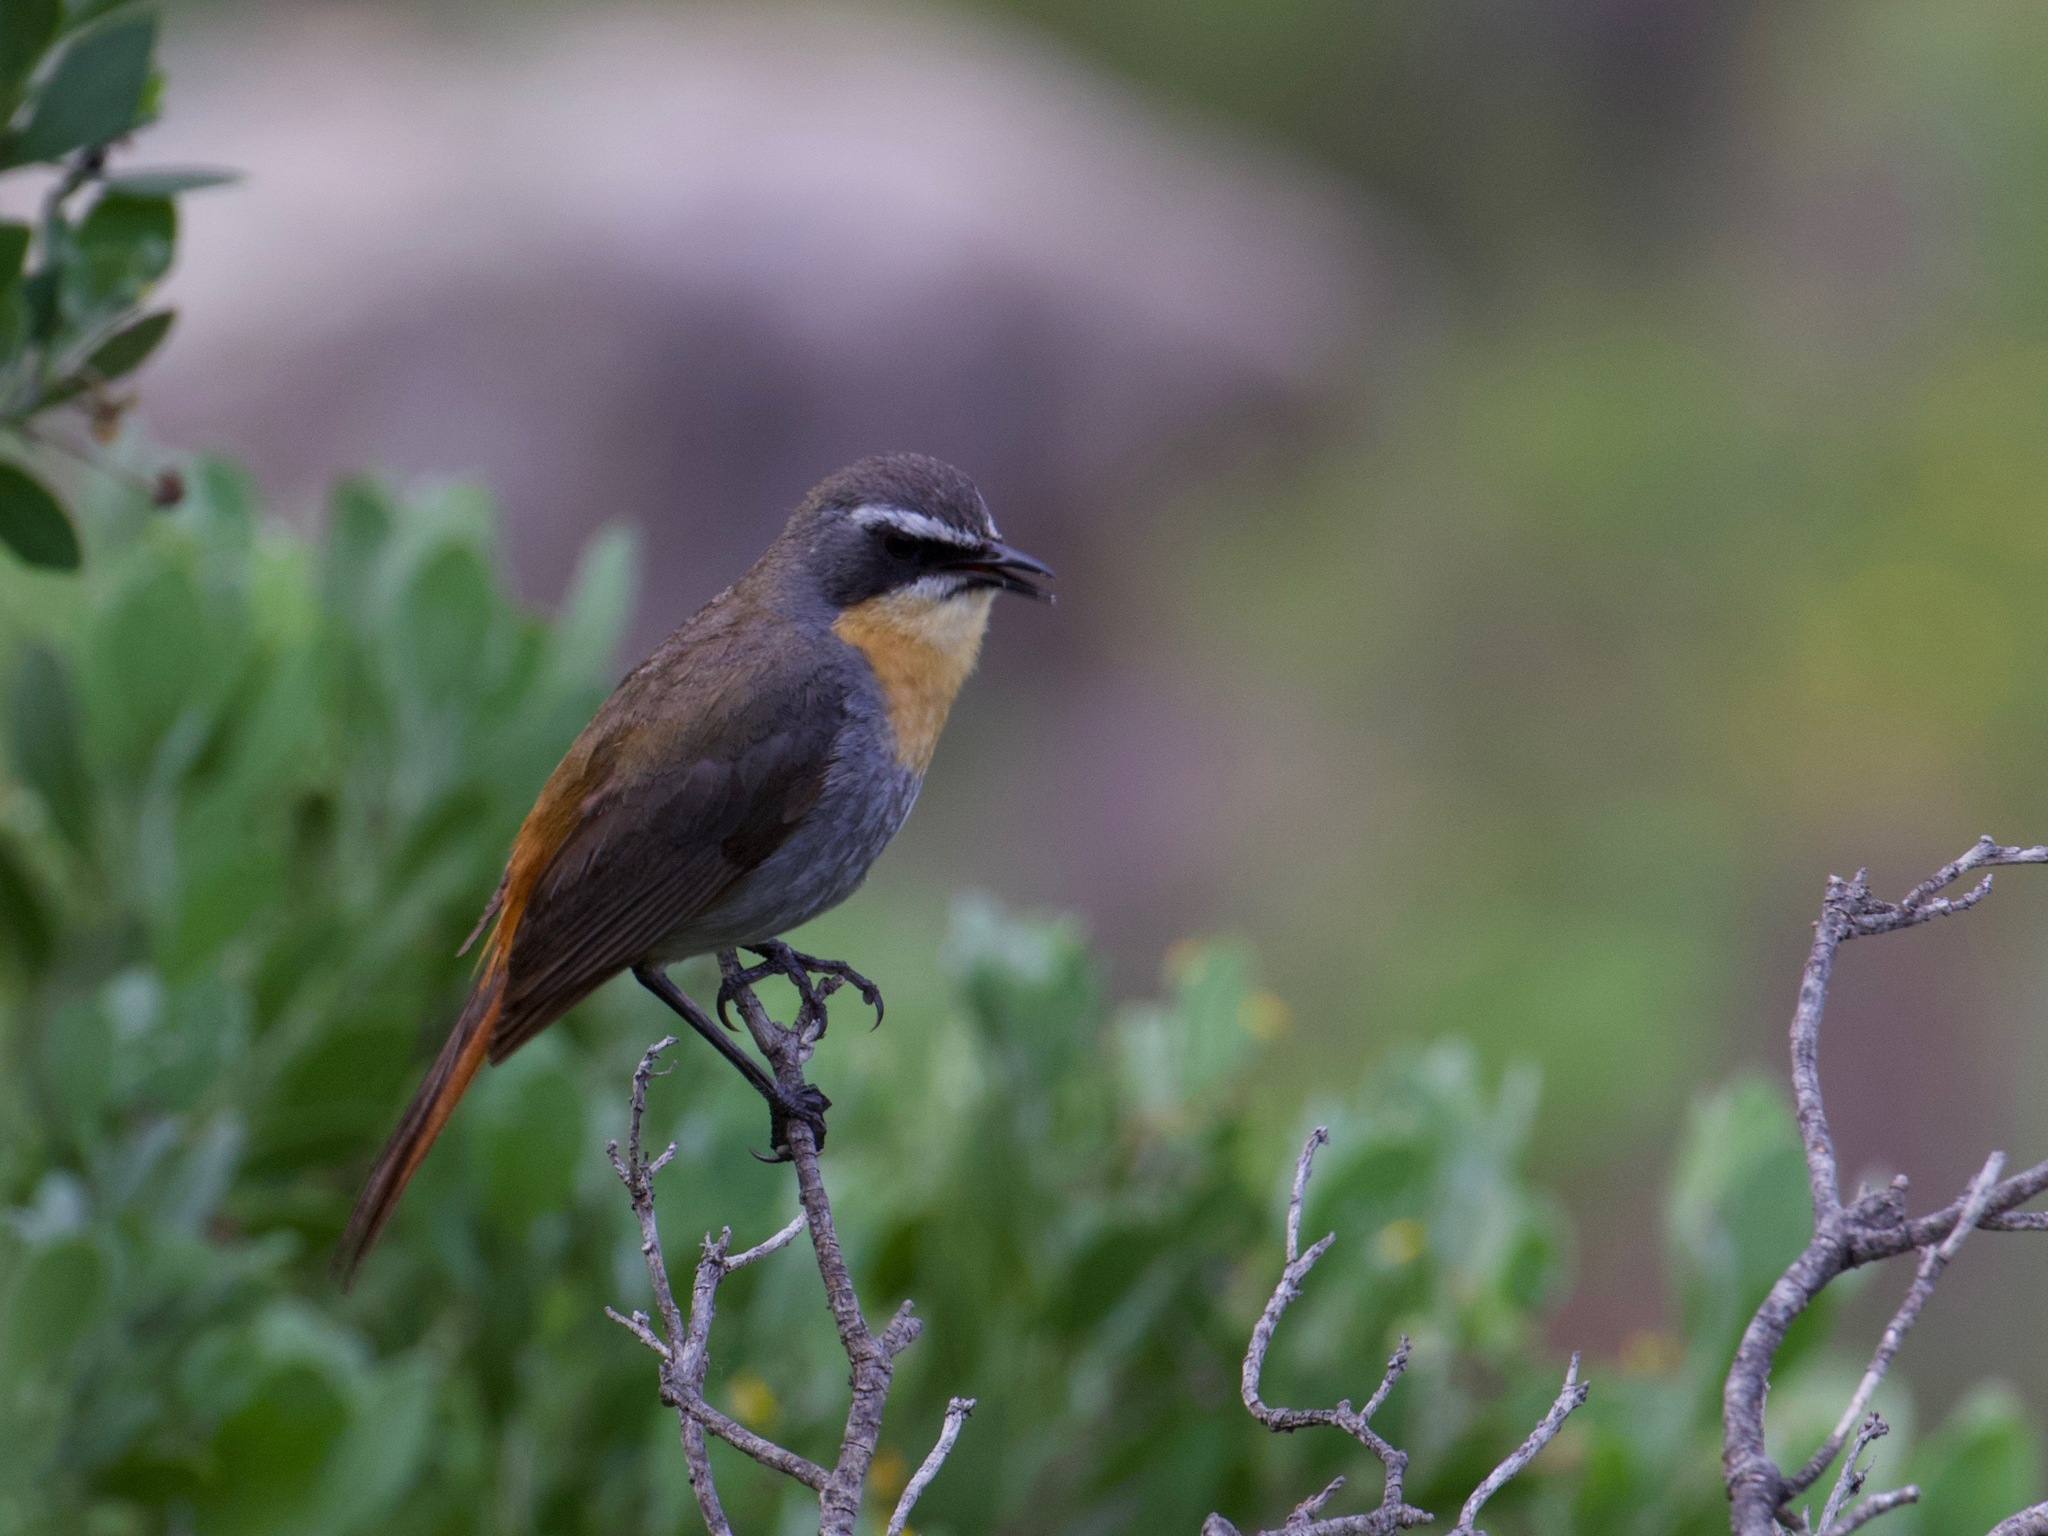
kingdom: Animalia
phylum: Chordata
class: Aves
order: Passeriformes
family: Muscicapidae
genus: Cossypha
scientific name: Cossypha caffra
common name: Cape robin-chat
